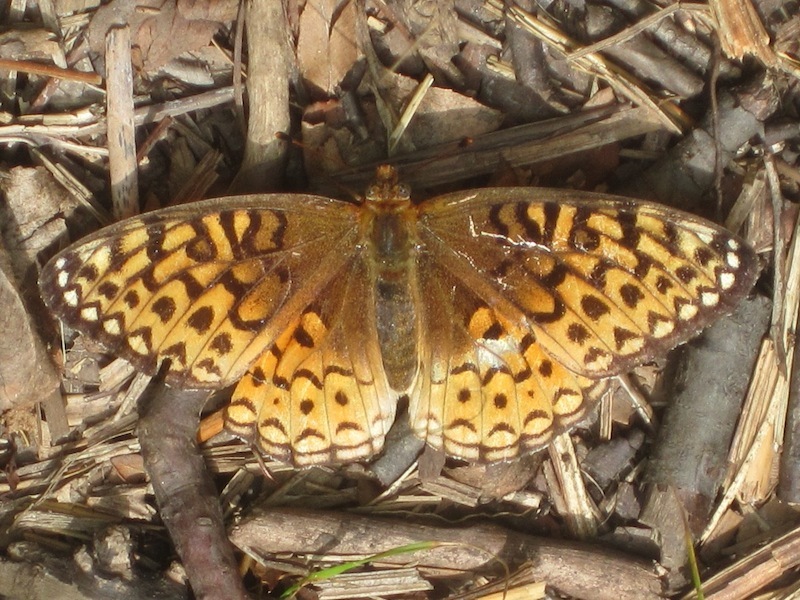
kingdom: Animalia
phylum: Arthropoda
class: Insecta
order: Lepidoptera
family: Nymphalidae
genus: Speyeria
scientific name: Speyeria atlantis
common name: Atlantis fritillary
